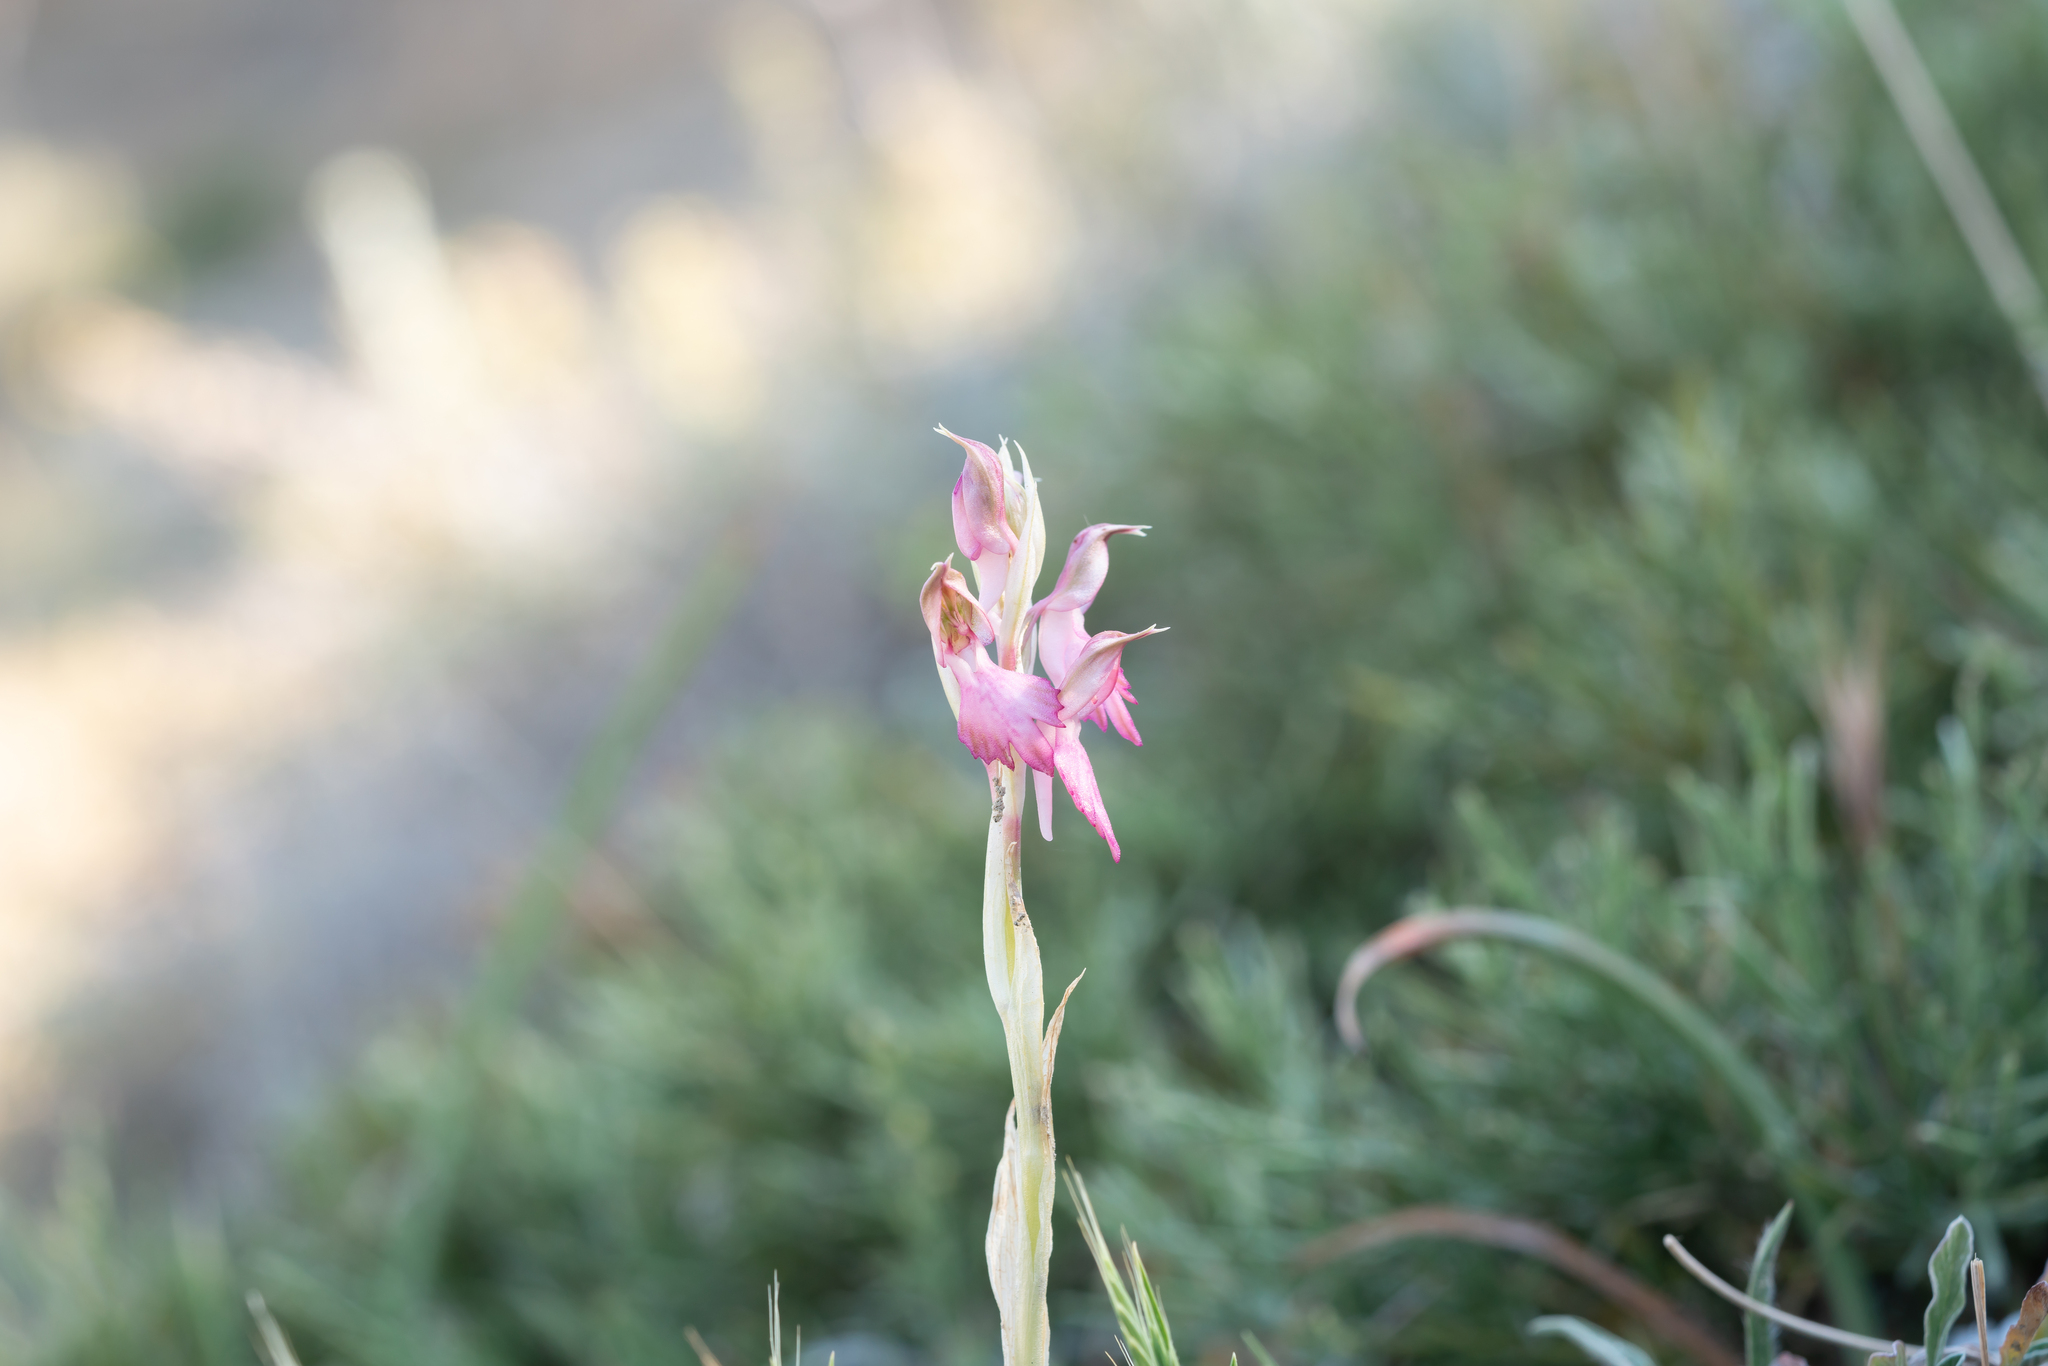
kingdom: Plantae
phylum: Tracheophyta
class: Liliopsida
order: Asparagales
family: Orchidaceae
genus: Anacamptis
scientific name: Anacamptis sancta
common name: Holy orchid
